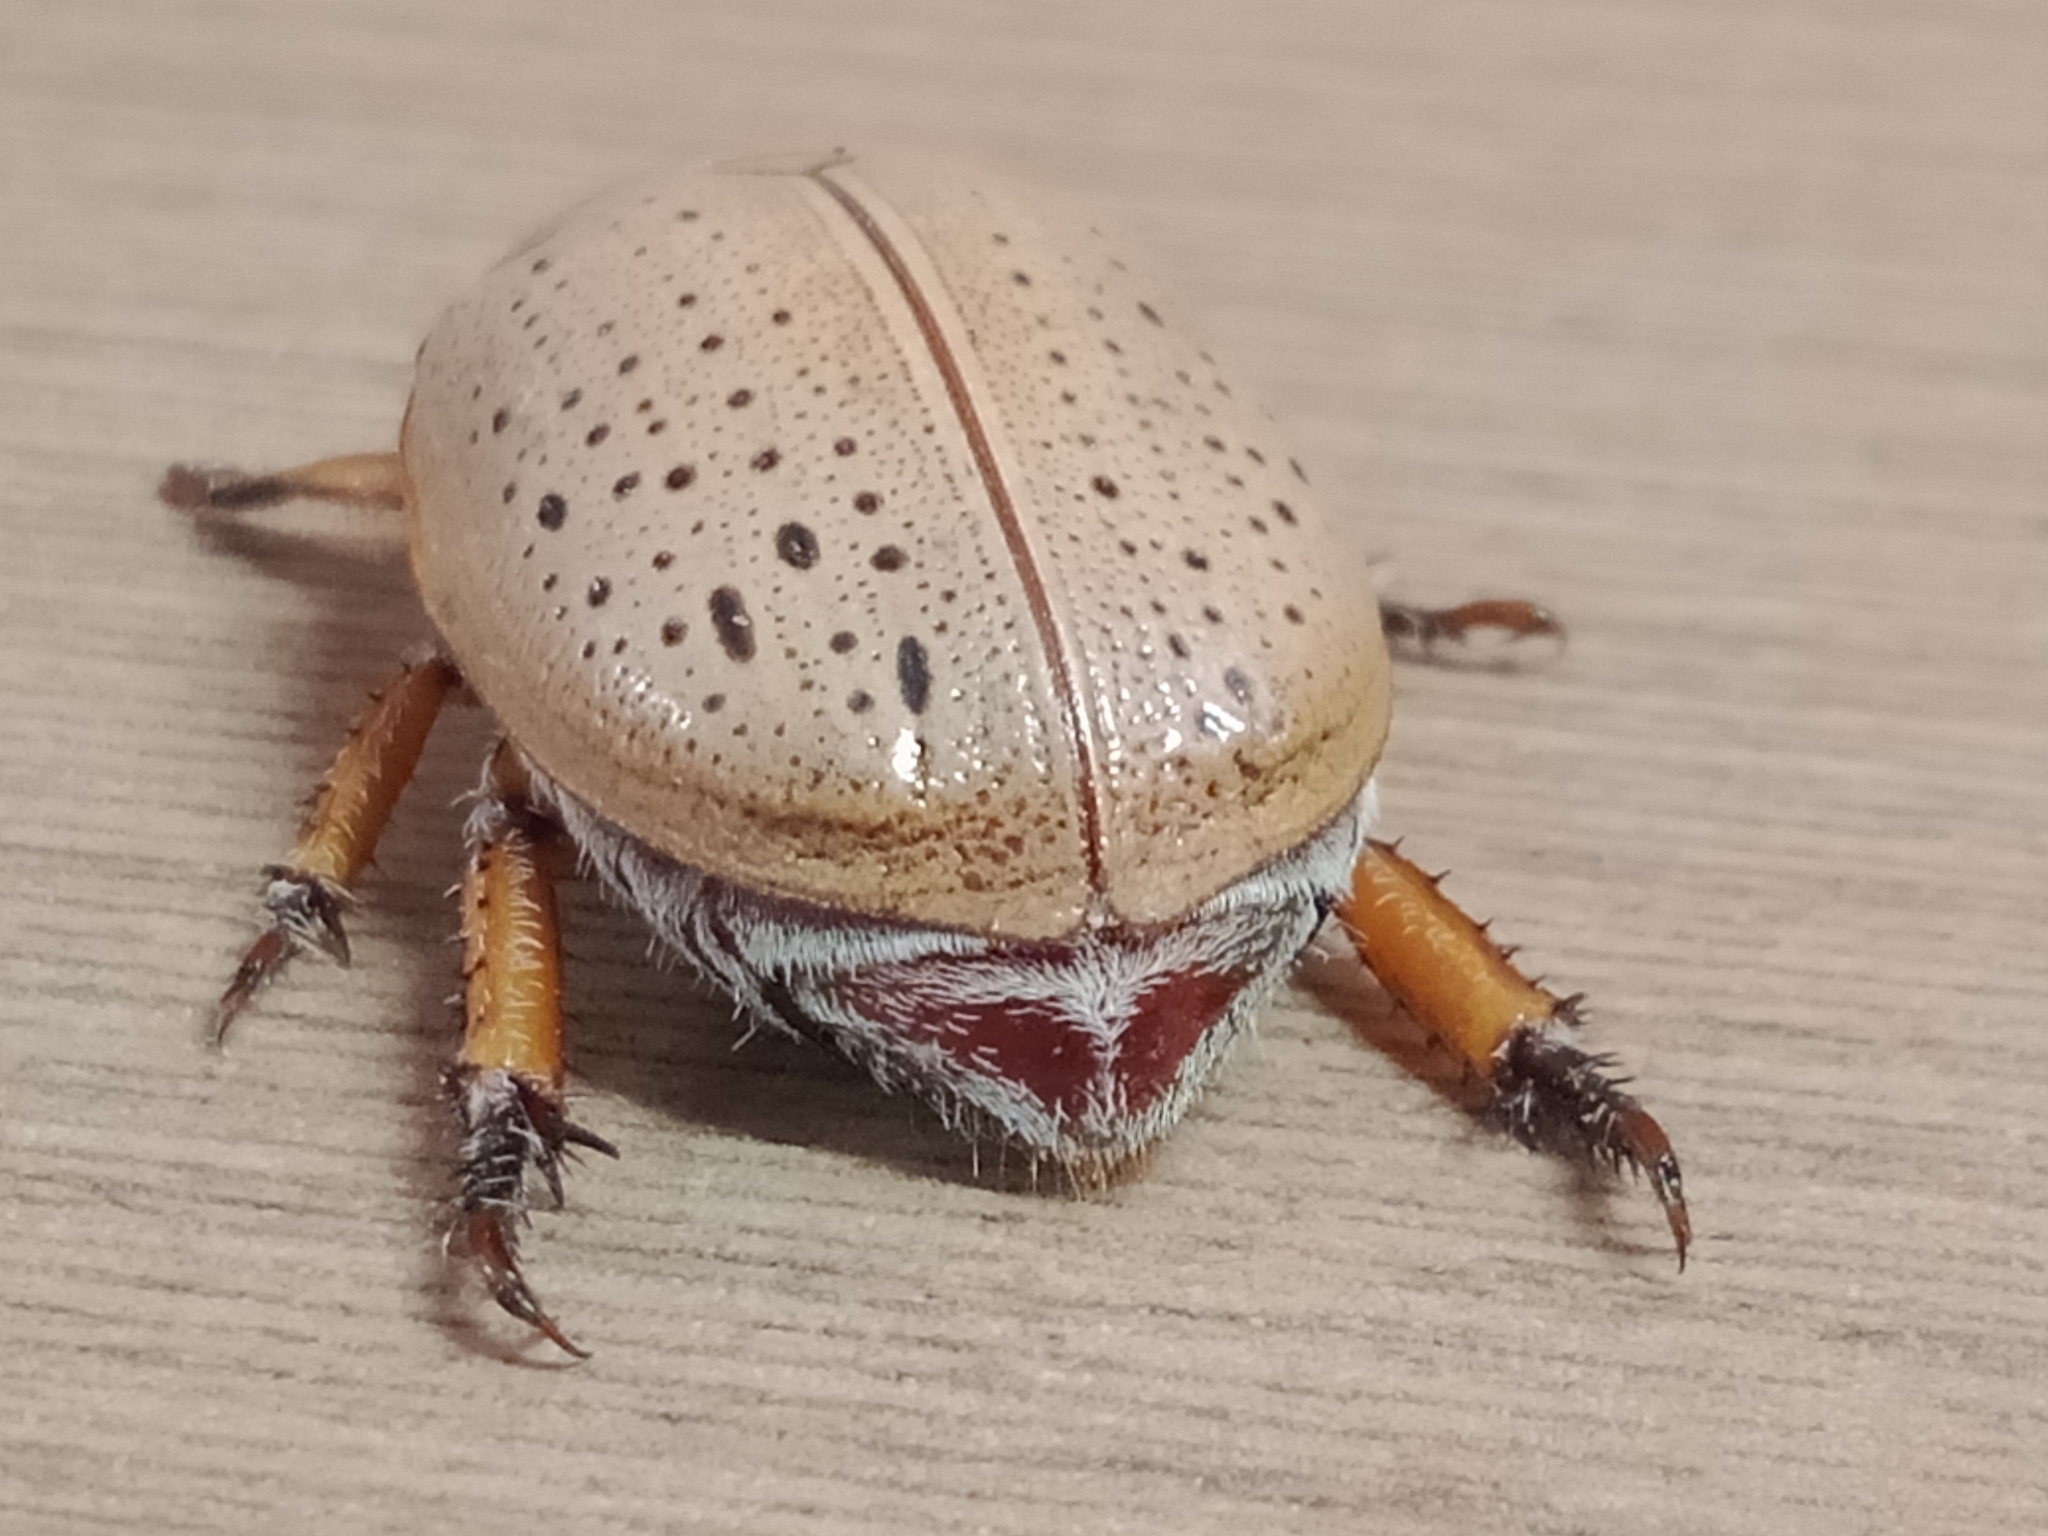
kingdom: Animalia
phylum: Arthropoda
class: Insecta
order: Coleoptera
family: Scarabaeidae
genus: Anoplognathus
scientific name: Anoplognathus porosus
